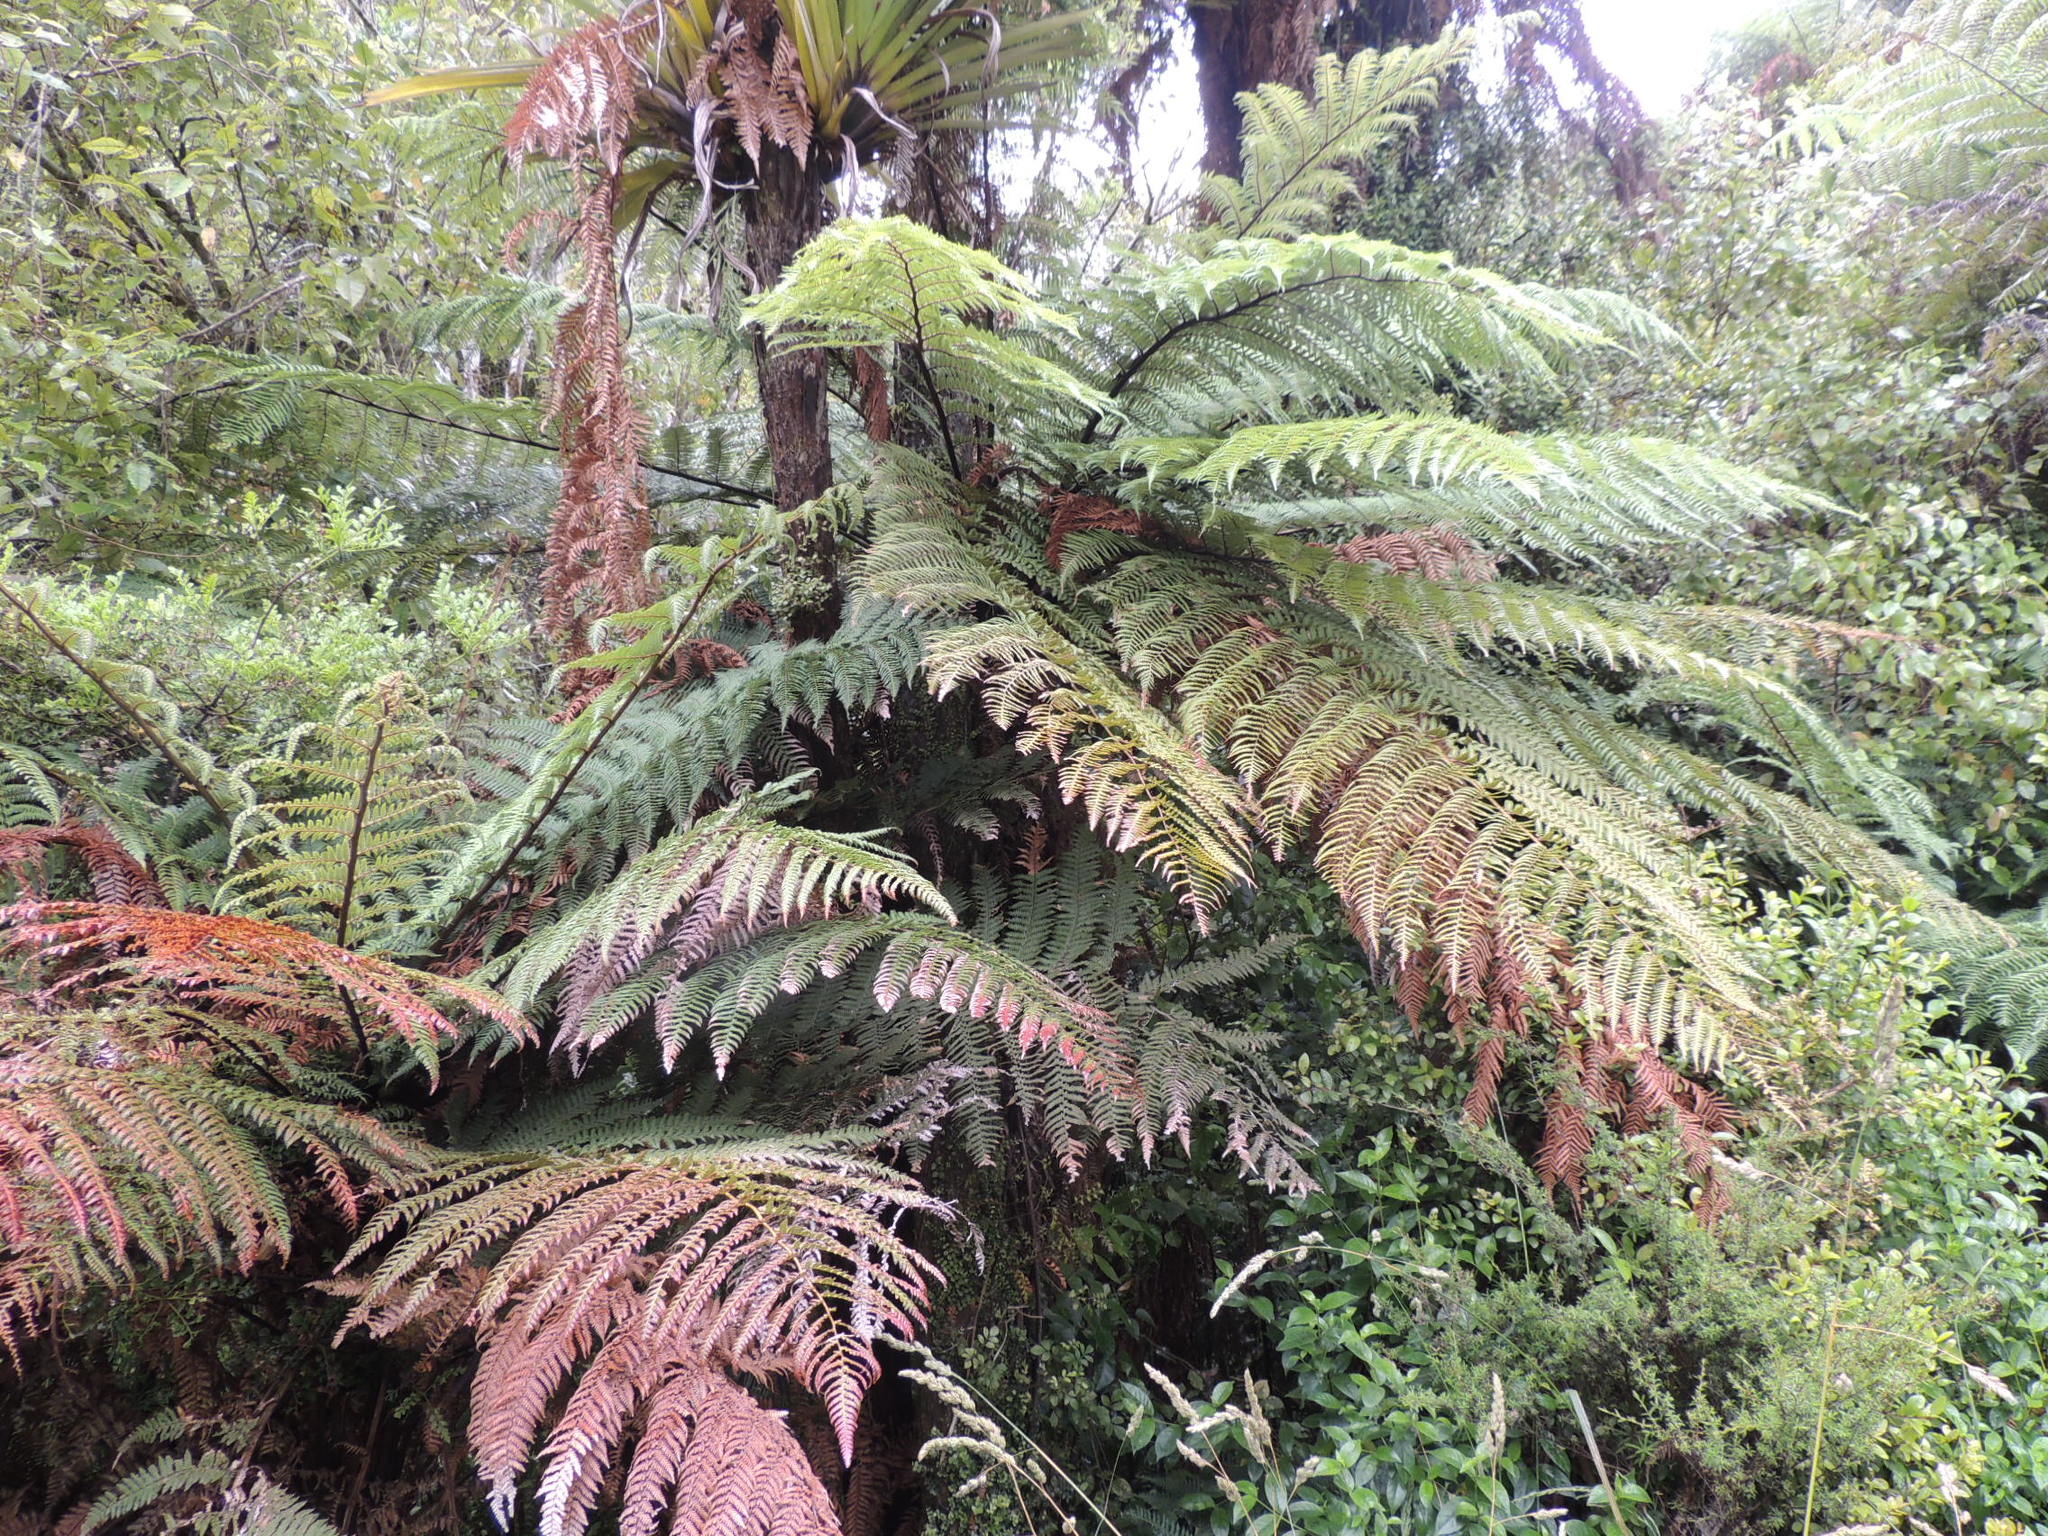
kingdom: Plantae
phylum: Tracheophyta
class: Polypodiopsida
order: Cyatheales
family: Dicksoniaceae
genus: Dicksonia
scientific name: Dicksonia squarrosa
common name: Hard treefern
